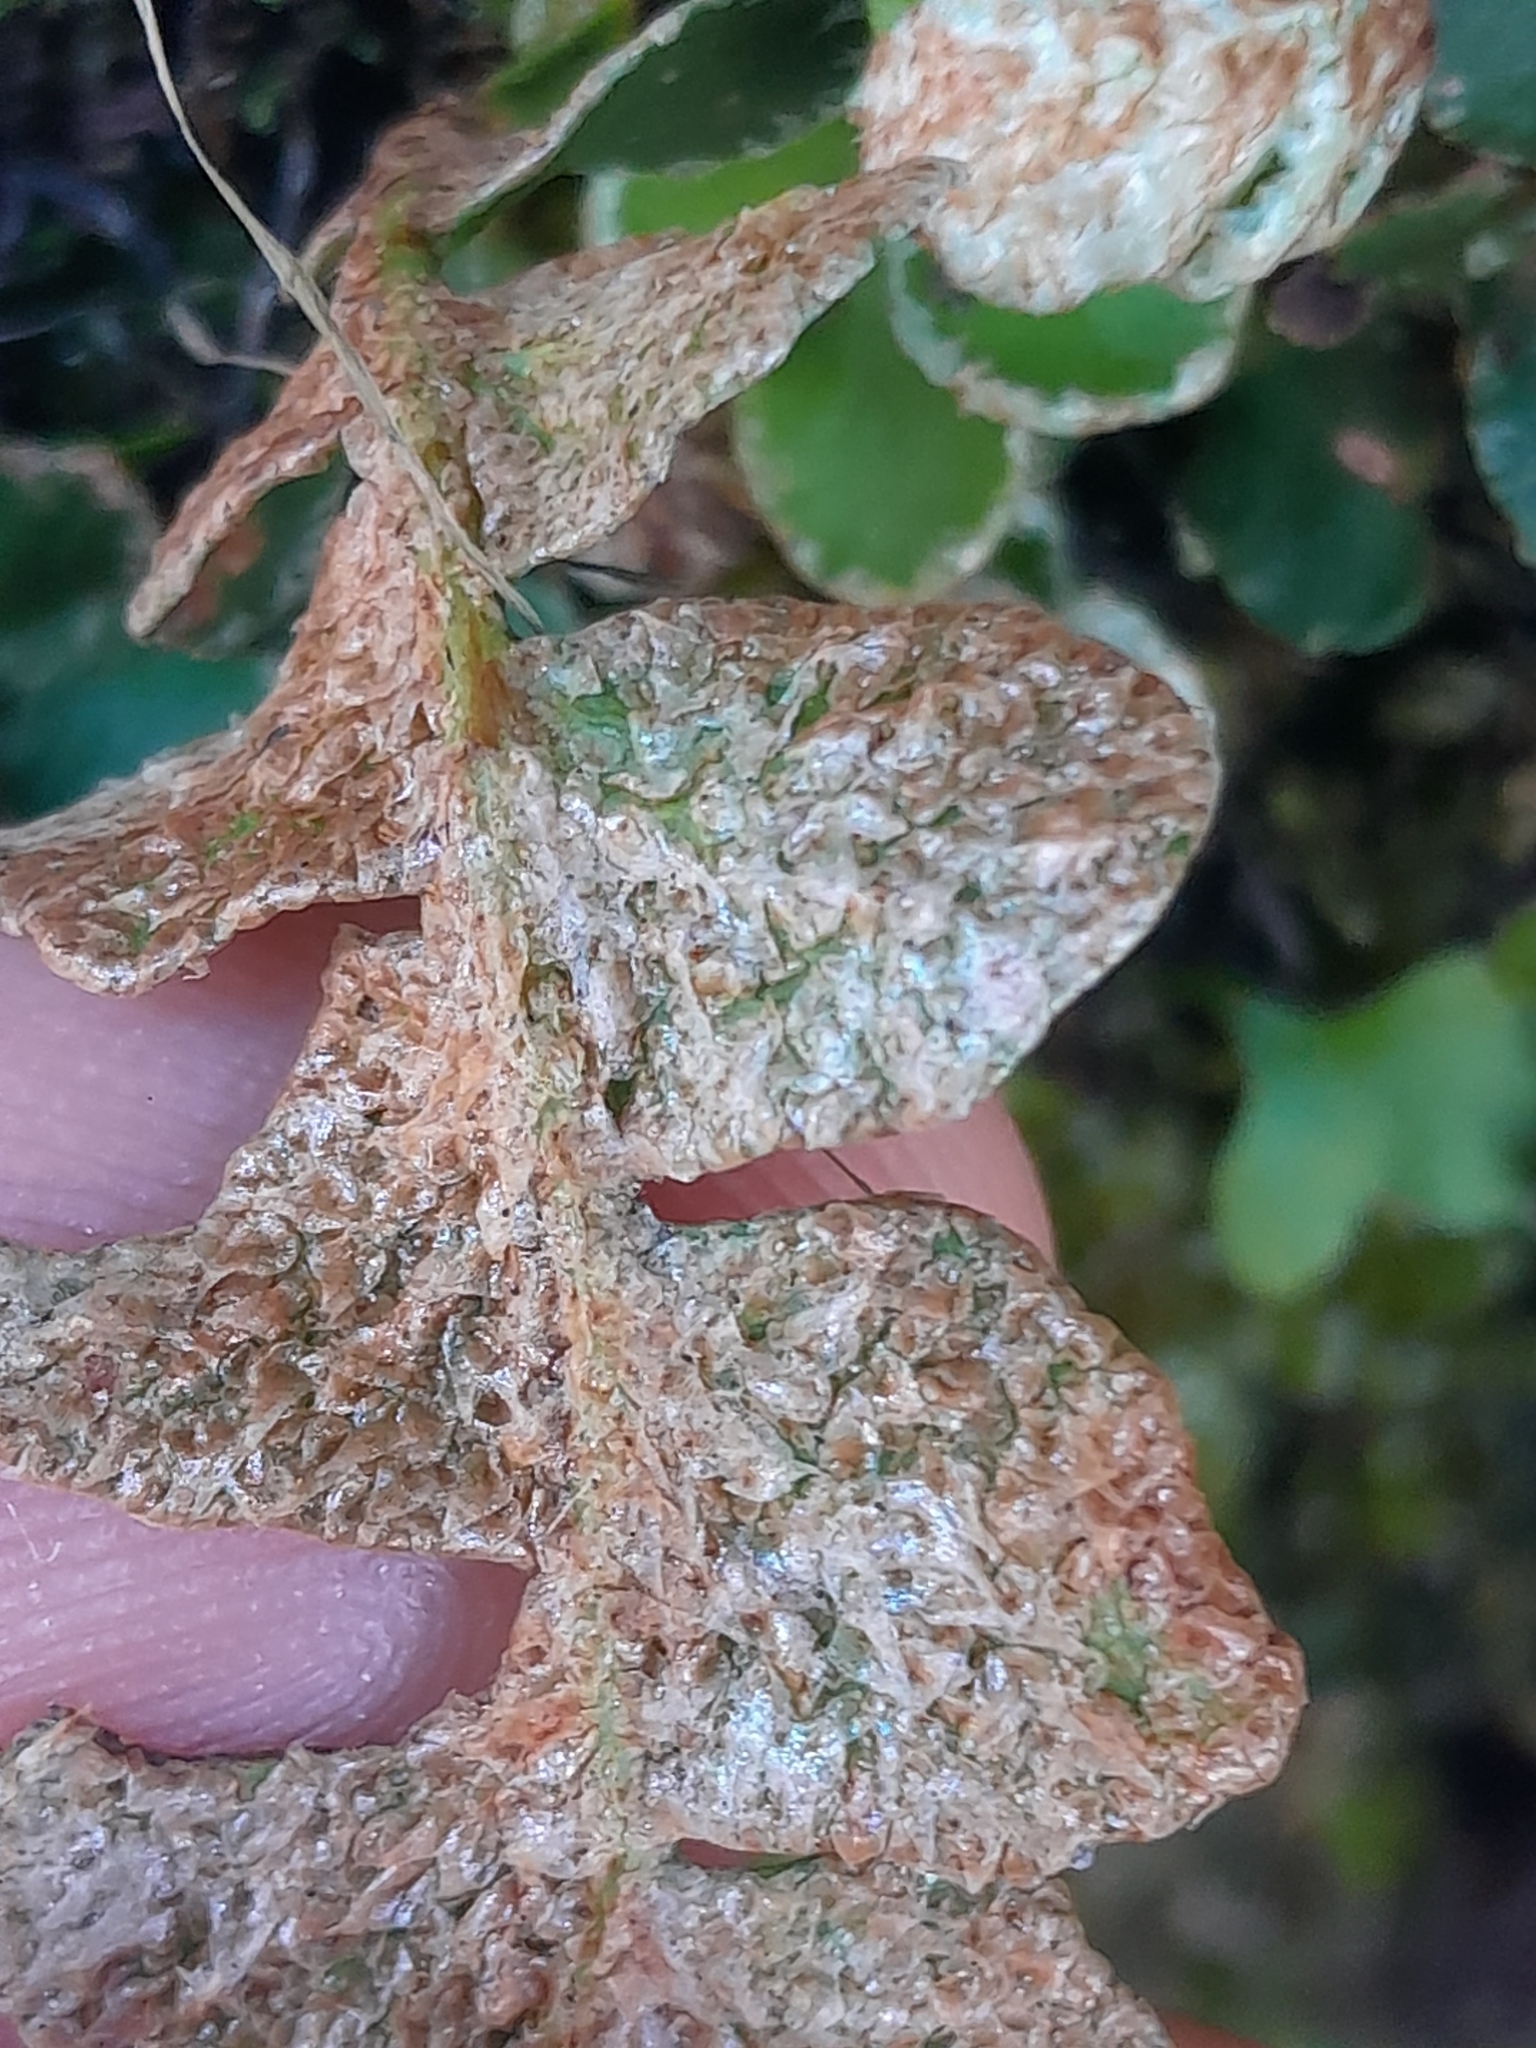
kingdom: Plantae
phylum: Tracheophyta
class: Polypodiopsida
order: Polypodiales
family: Aspleniaceae
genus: Asplenium
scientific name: Asplenium ceterach
